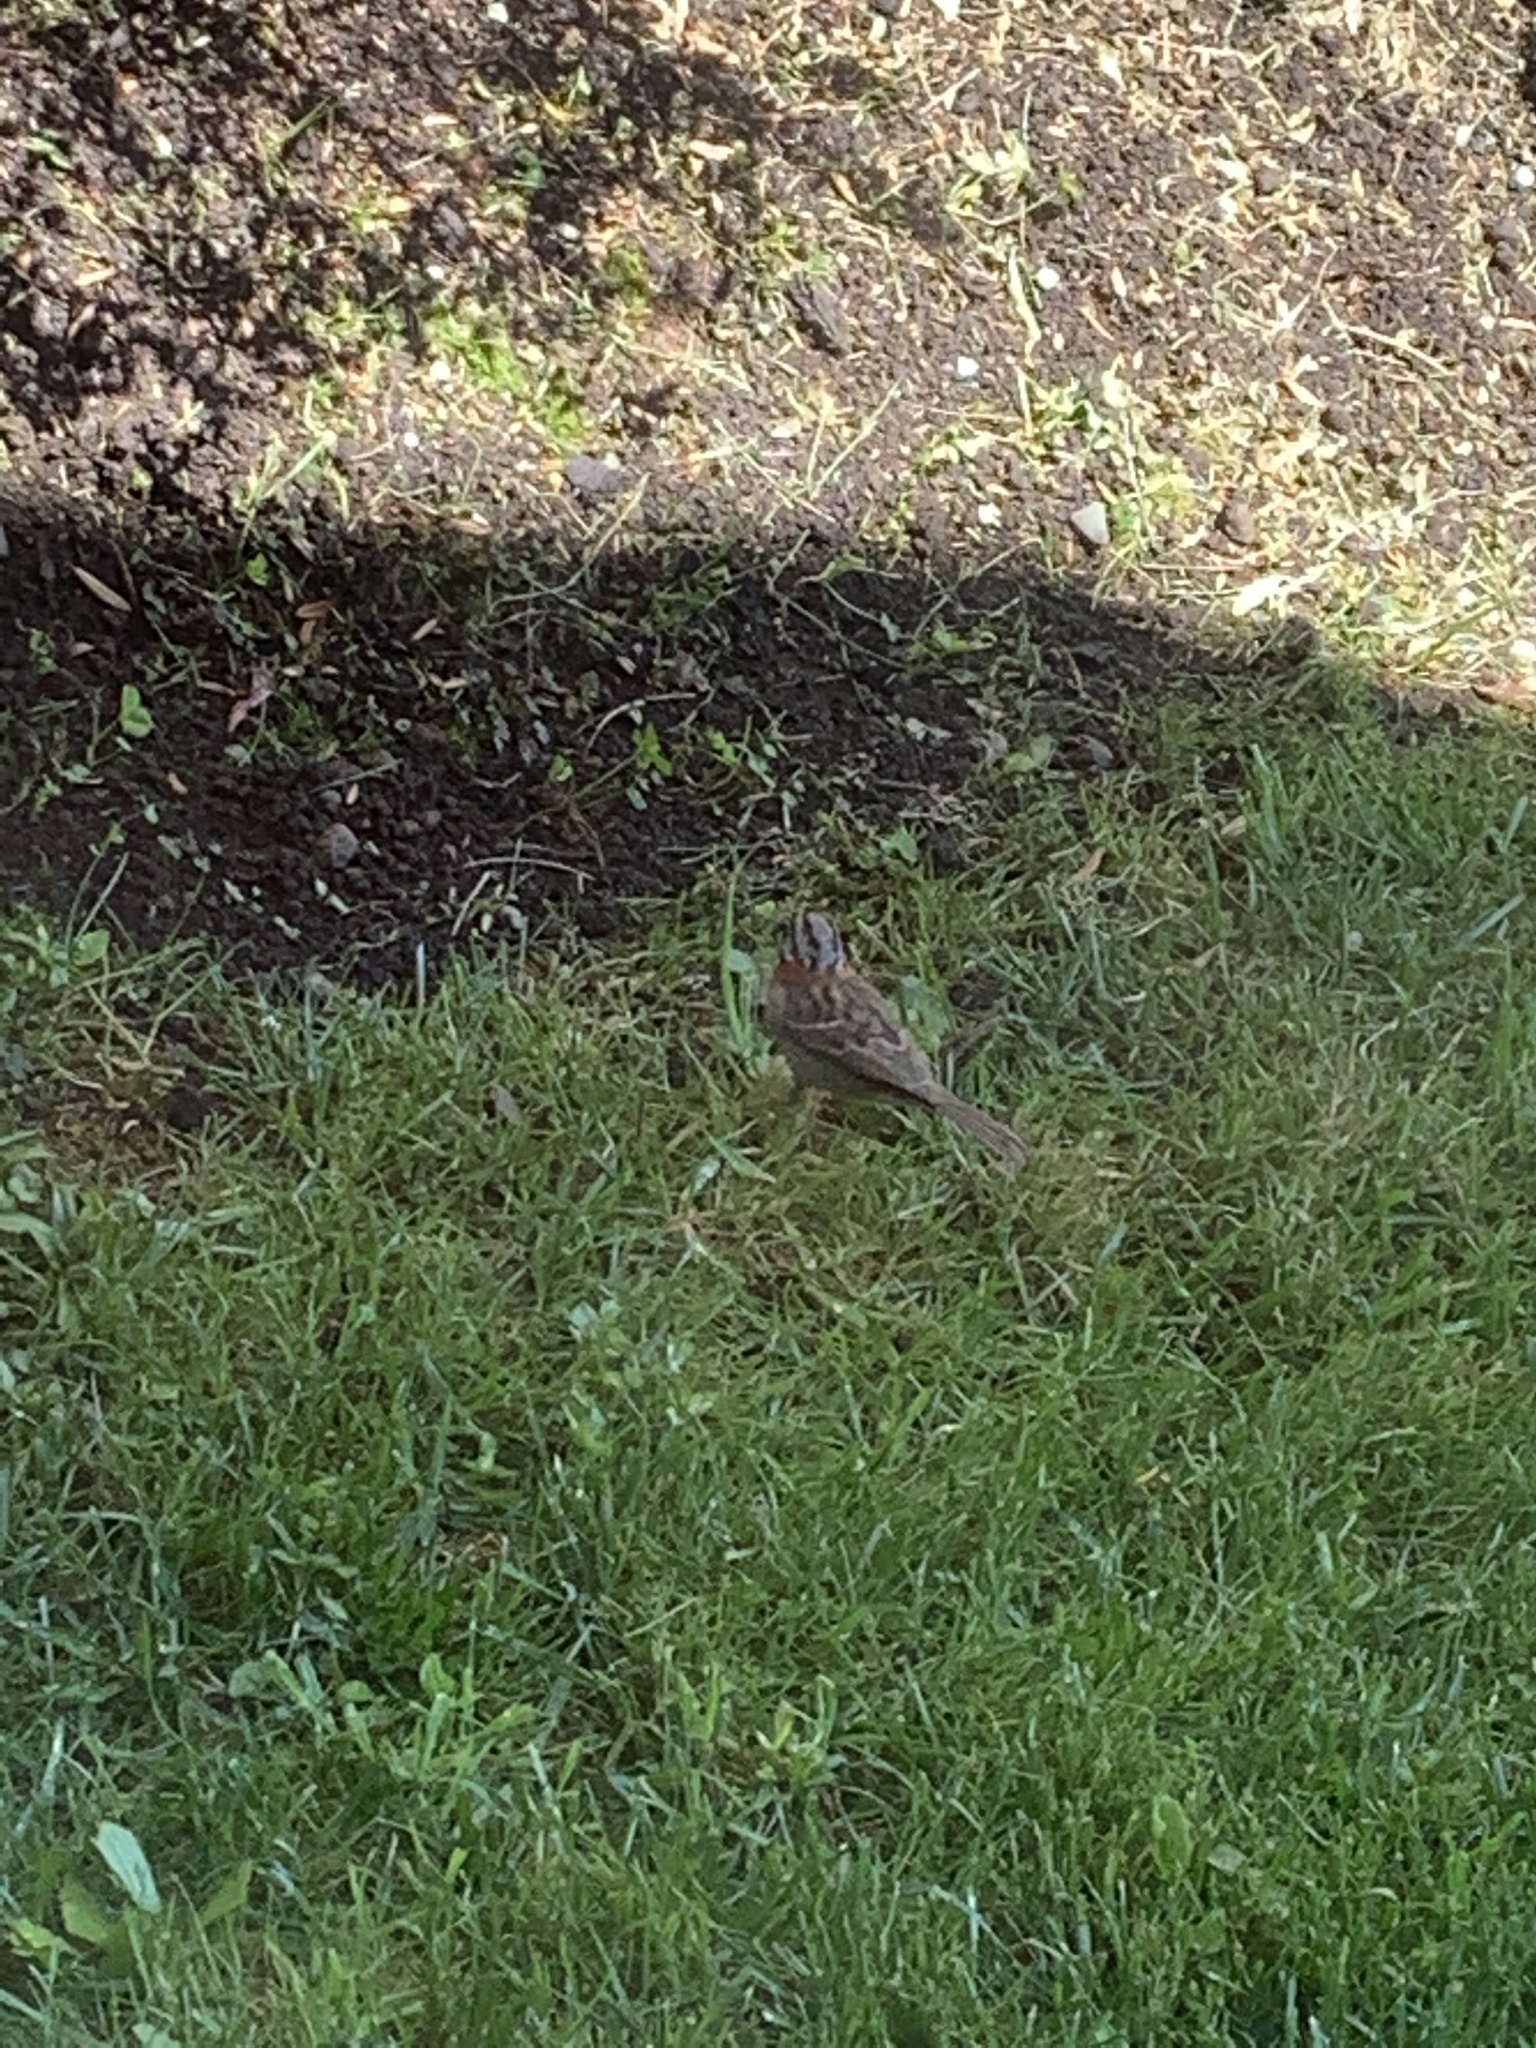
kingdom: Animalia
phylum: Chordata
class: Aves
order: Passeriformes
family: Passerellidae
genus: Zonotrichia
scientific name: Zonotrichia capensis
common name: Rufous-collared sparrow
